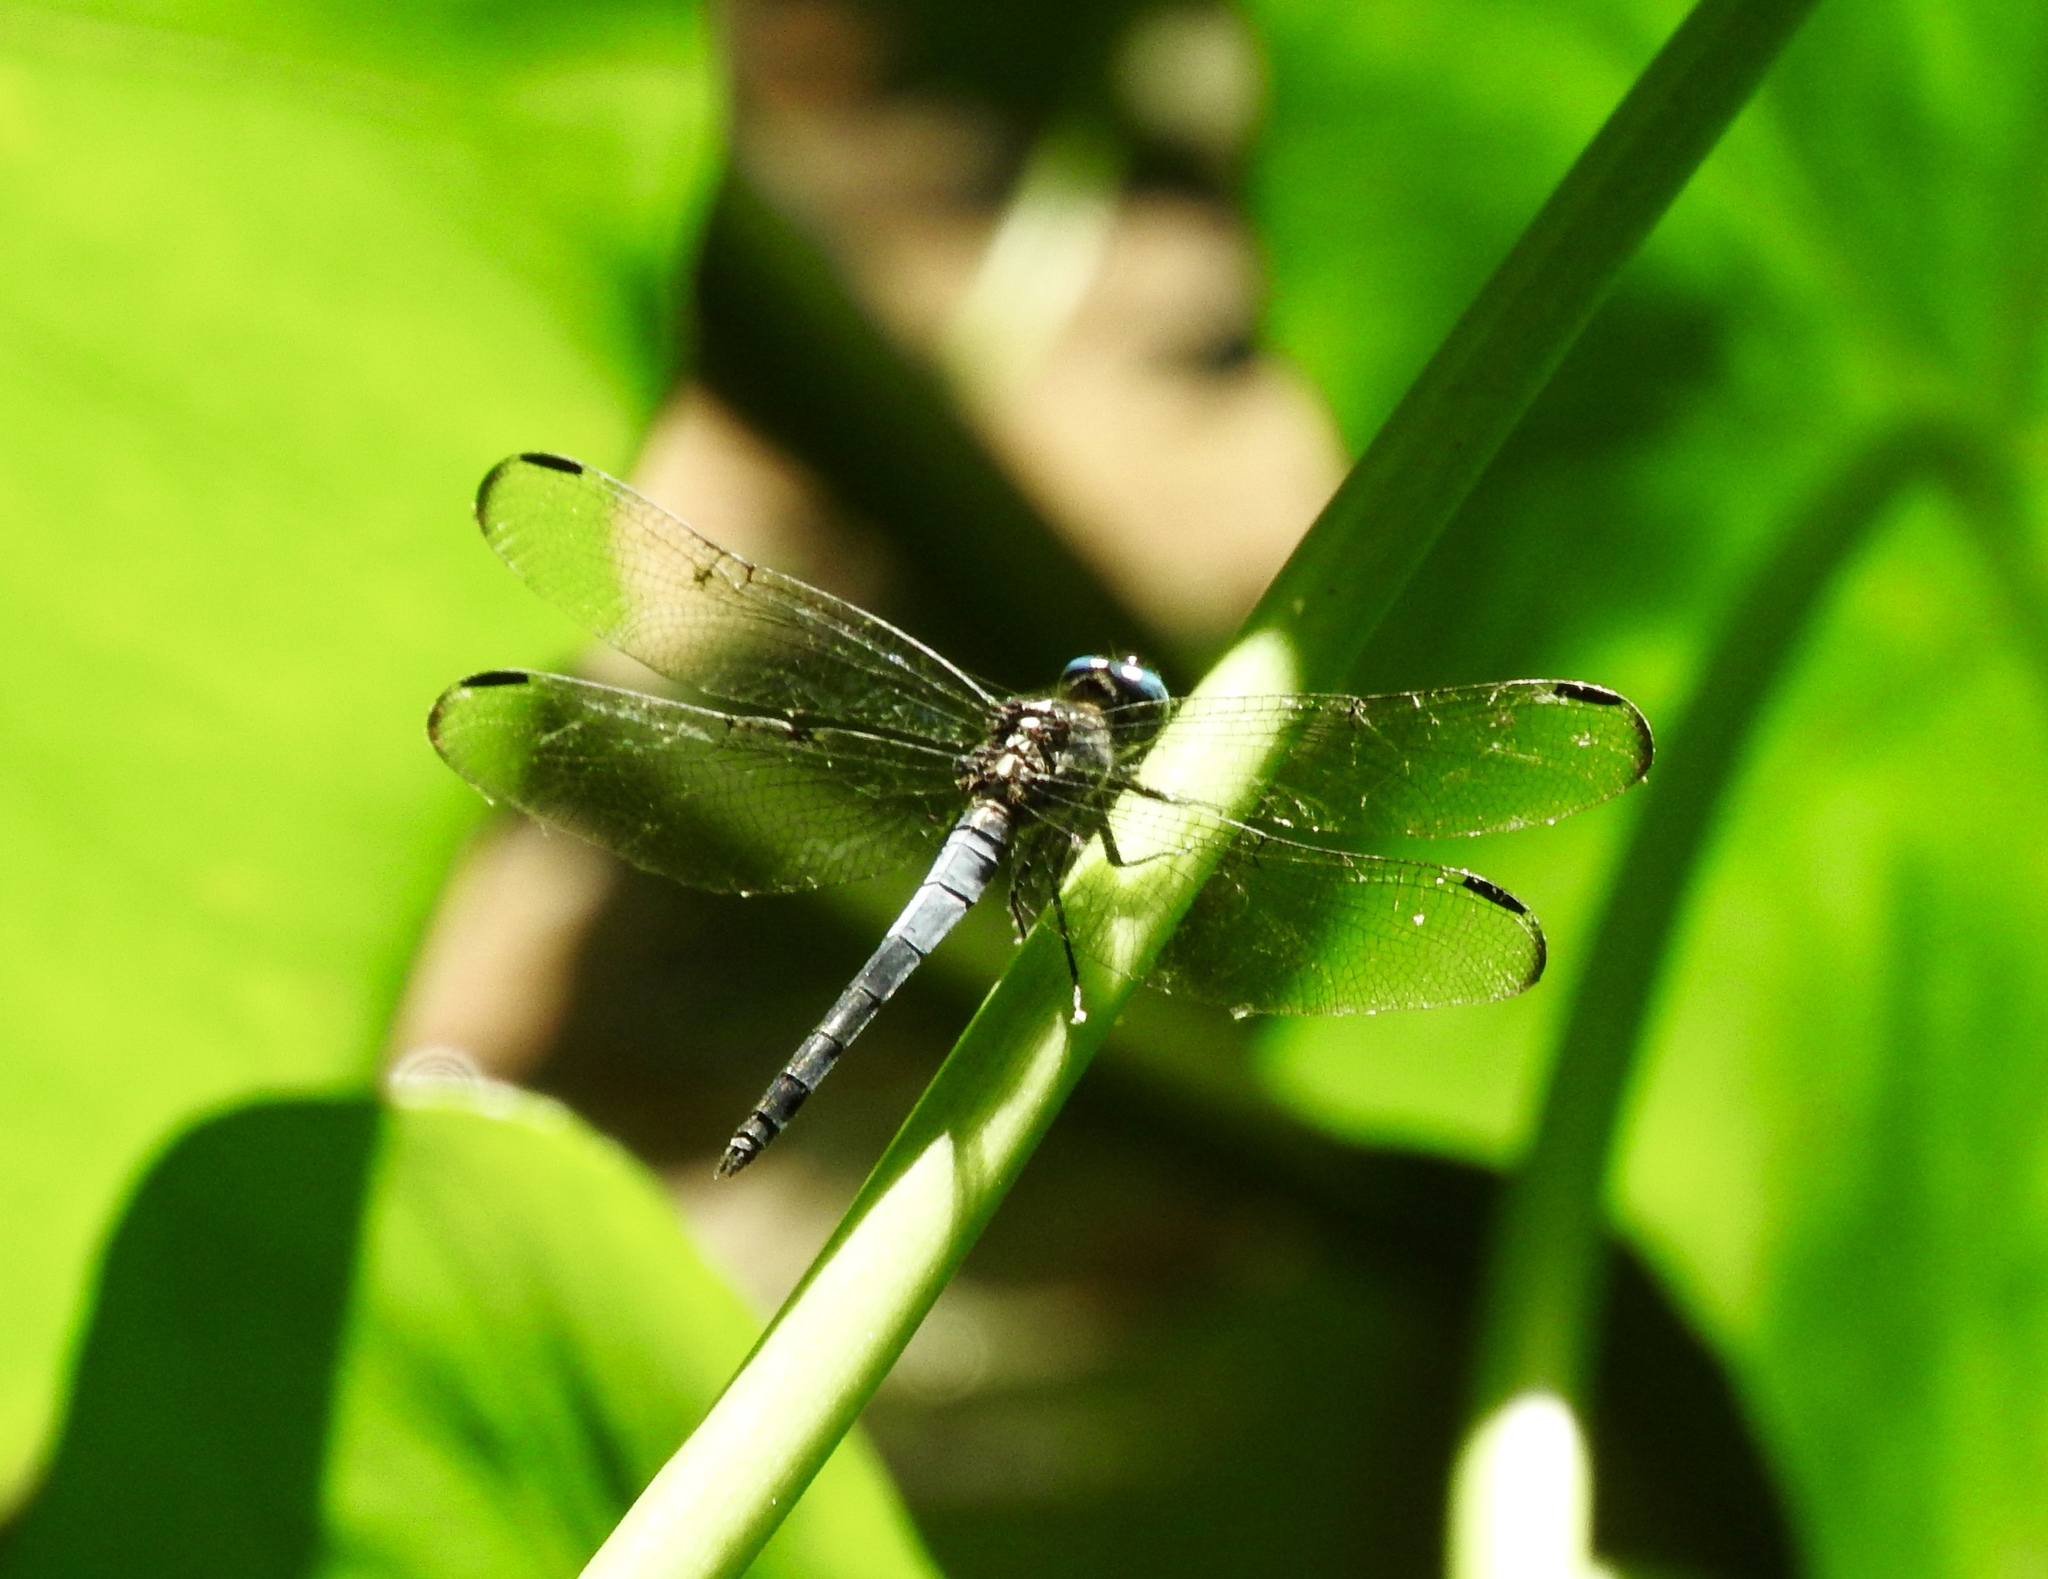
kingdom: Animalia
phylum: Arthropoda
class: Insecta
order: Odonata
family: Libellulidae
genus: Cannaphila
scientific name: Cannaphila insularis
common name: Gray-waisted skimmer
